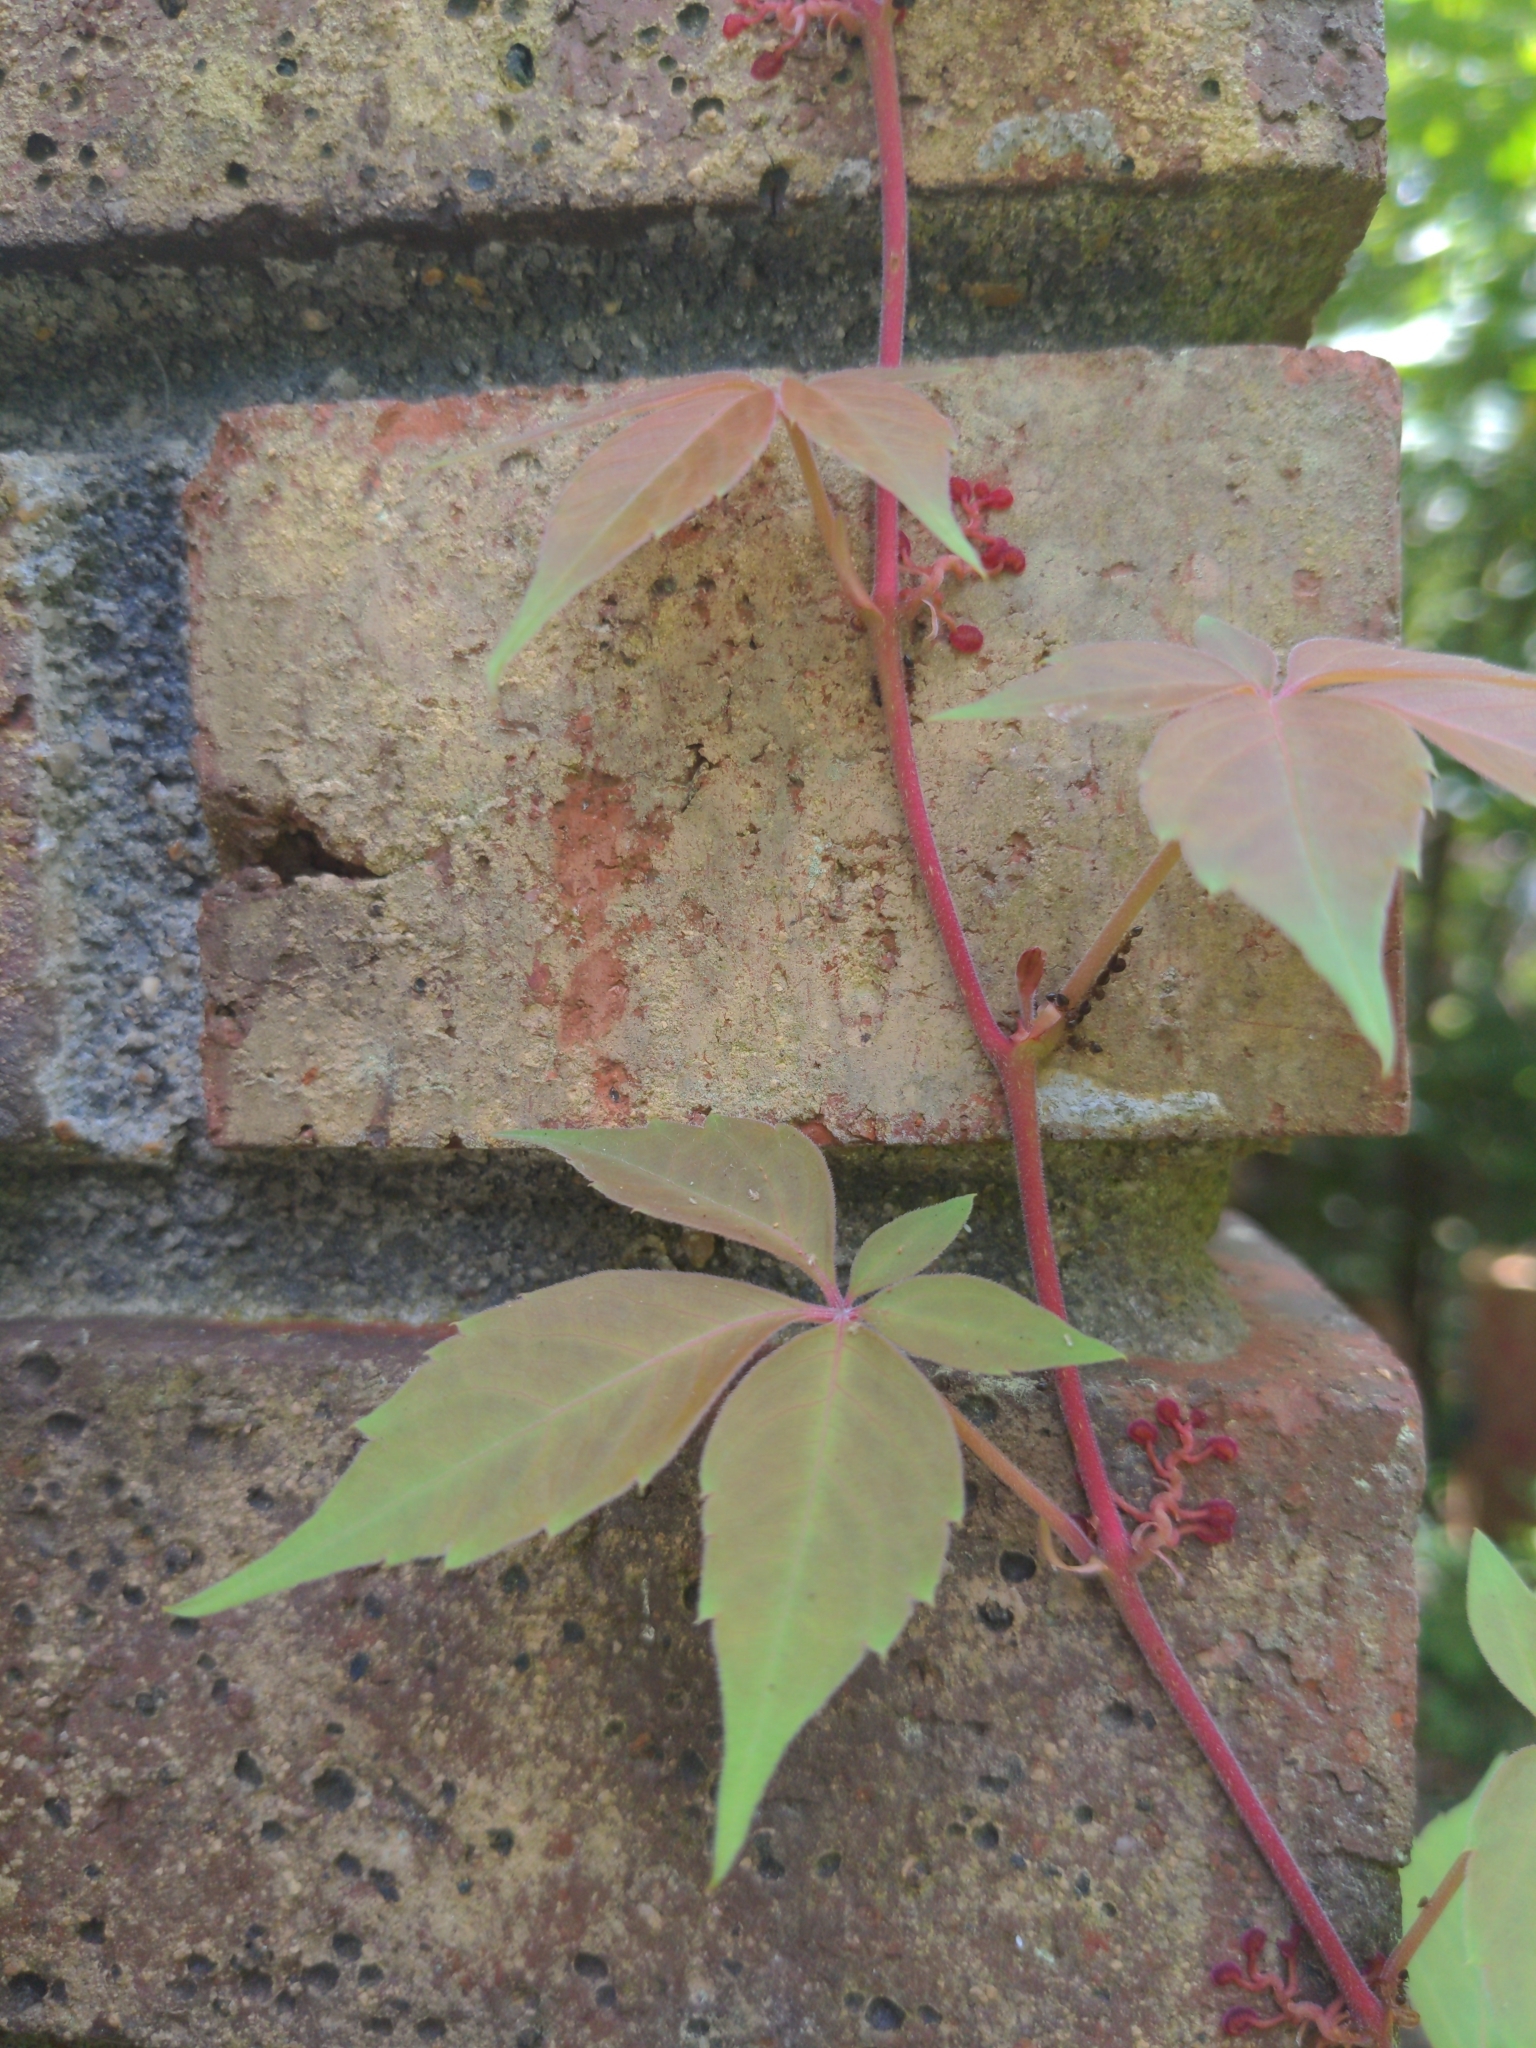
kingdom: Plantae
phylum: Tracheophyta
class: Magnoliopsida
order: Vitales
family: Vitaceae
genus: Parthenocissus
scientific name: Parthenocissus quinquefolia
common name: Virginia-creeper
